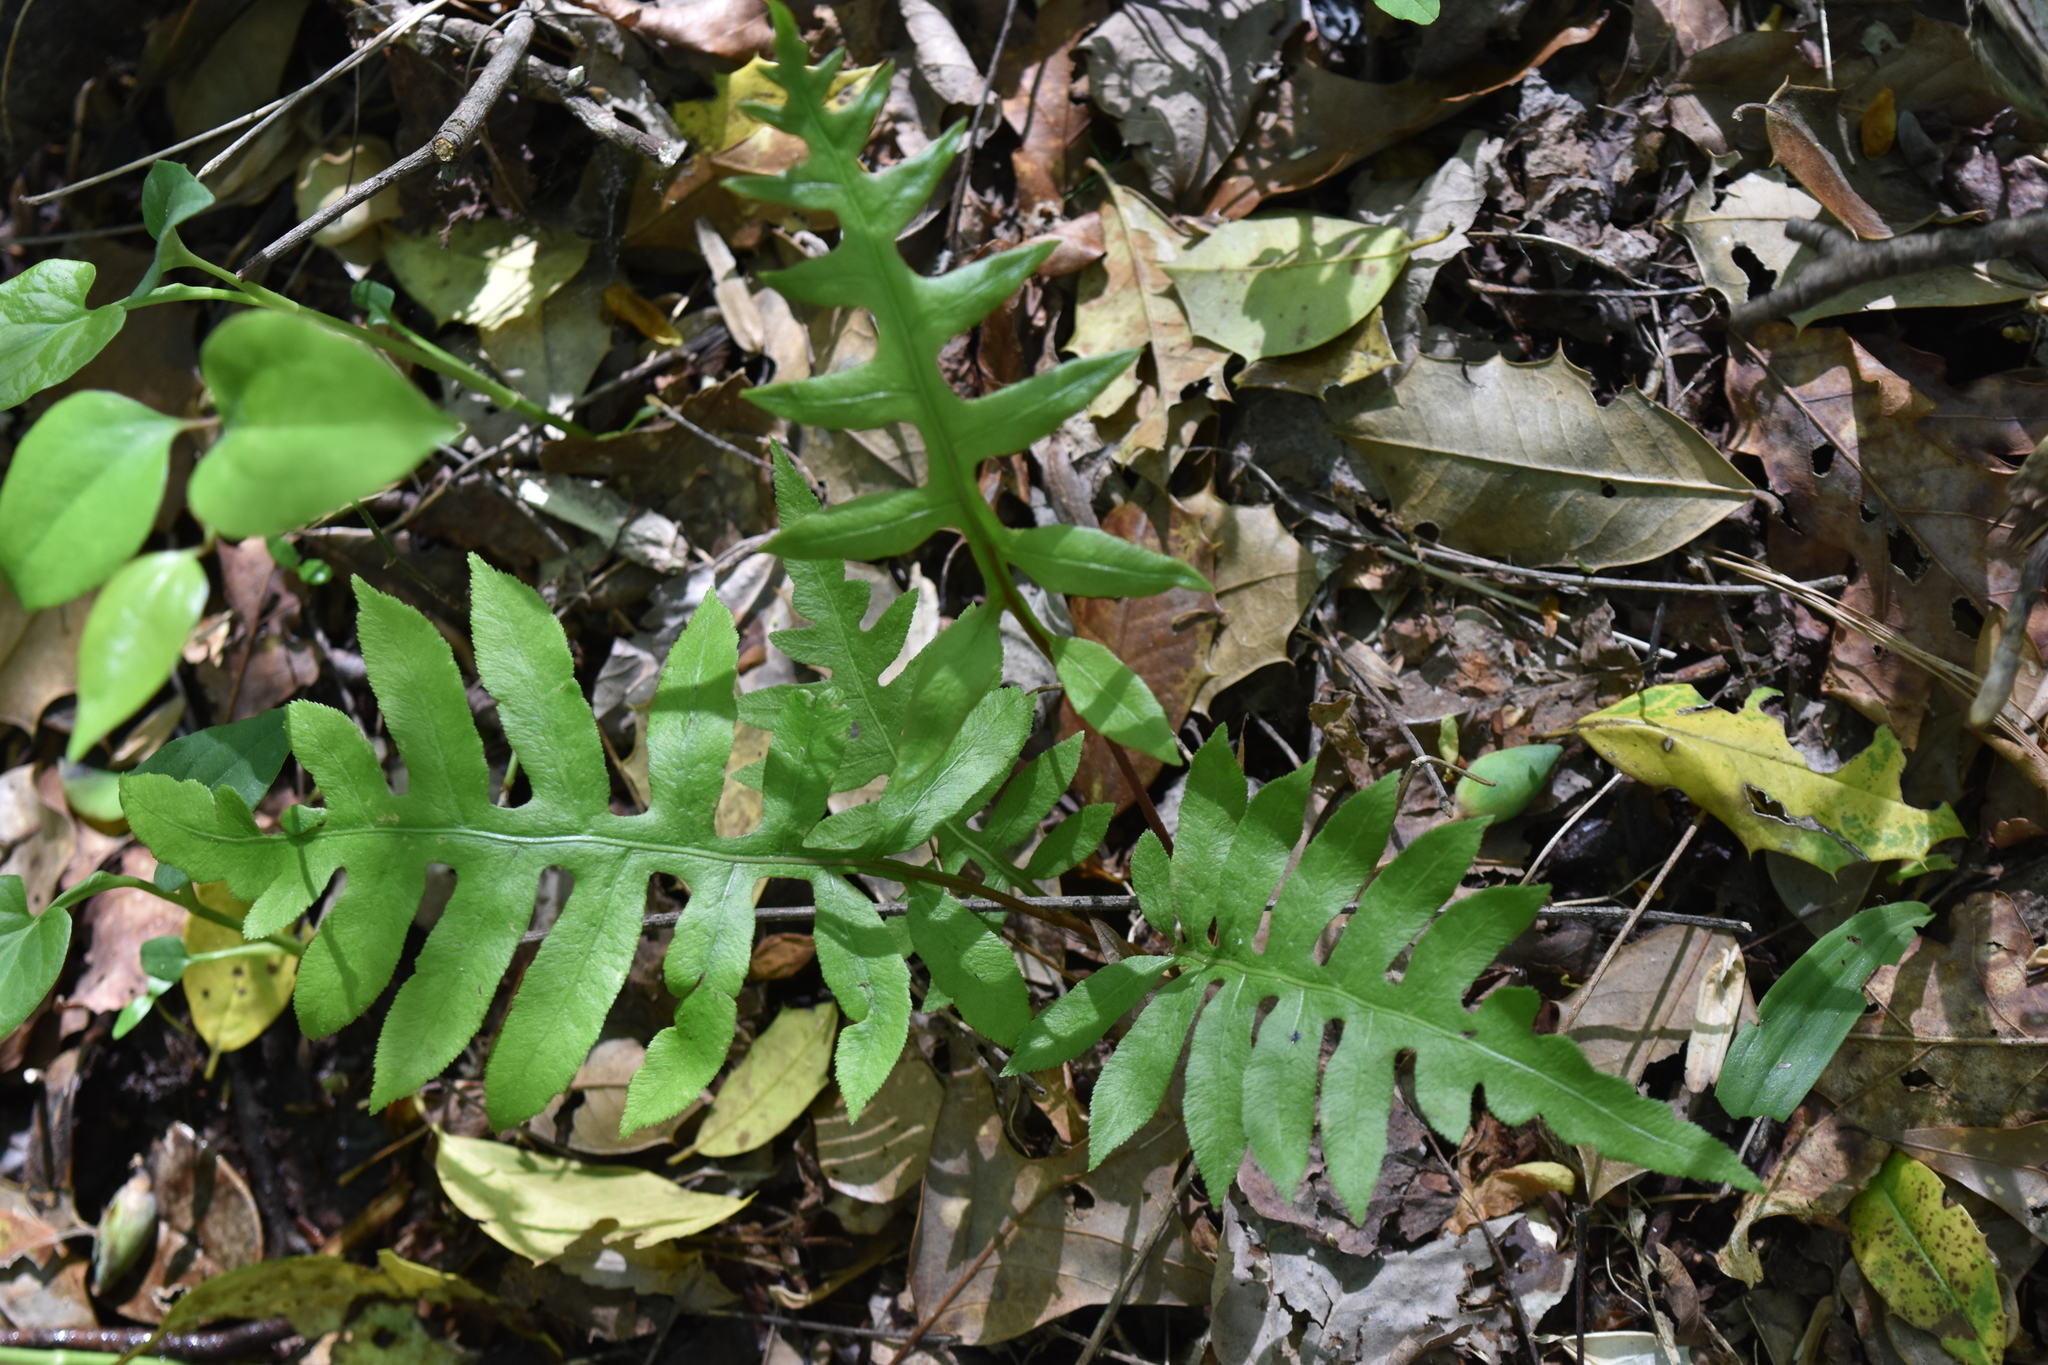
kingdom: Plantae
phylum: Tracheophyta
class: Polypodiopsida
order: Polypodiales
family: Blechnaceae
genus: Lorinseria
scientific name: Lorinseria areolata
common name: Dwarf chain fern
